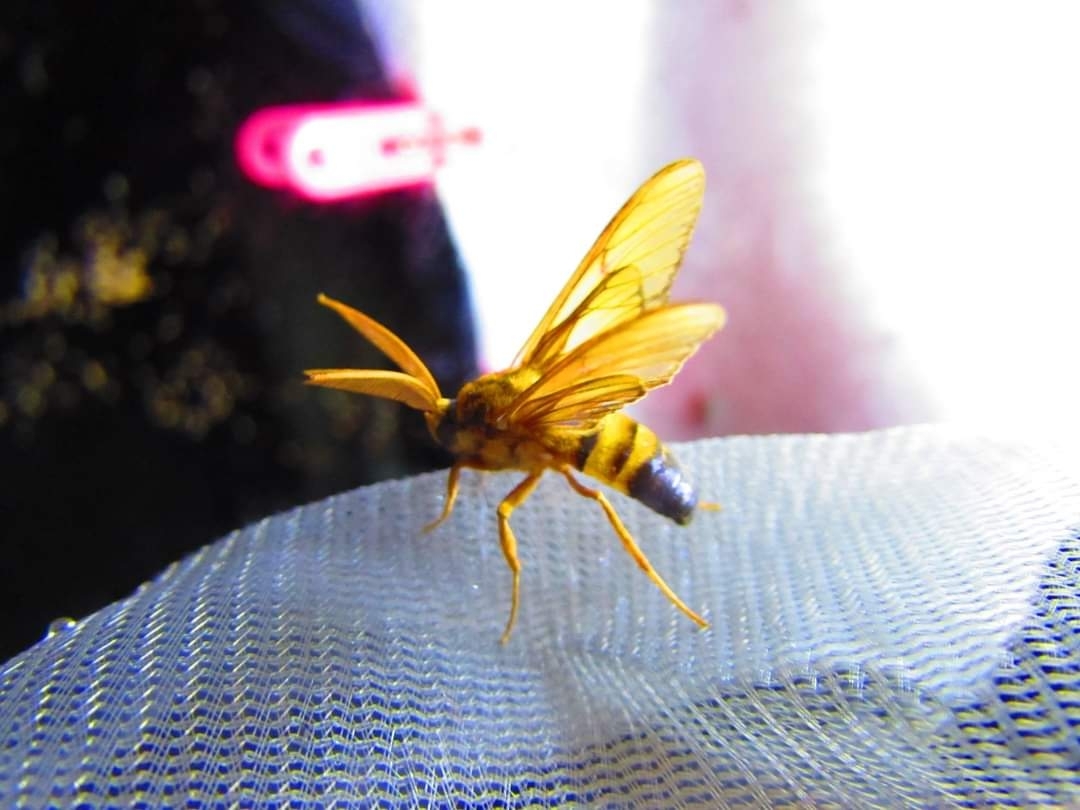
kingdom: Animalia
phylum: Arthropoda
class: Insecta
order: Lepidoptera
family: Erebidae
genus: Sarosa
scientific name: Sarosa acutior
